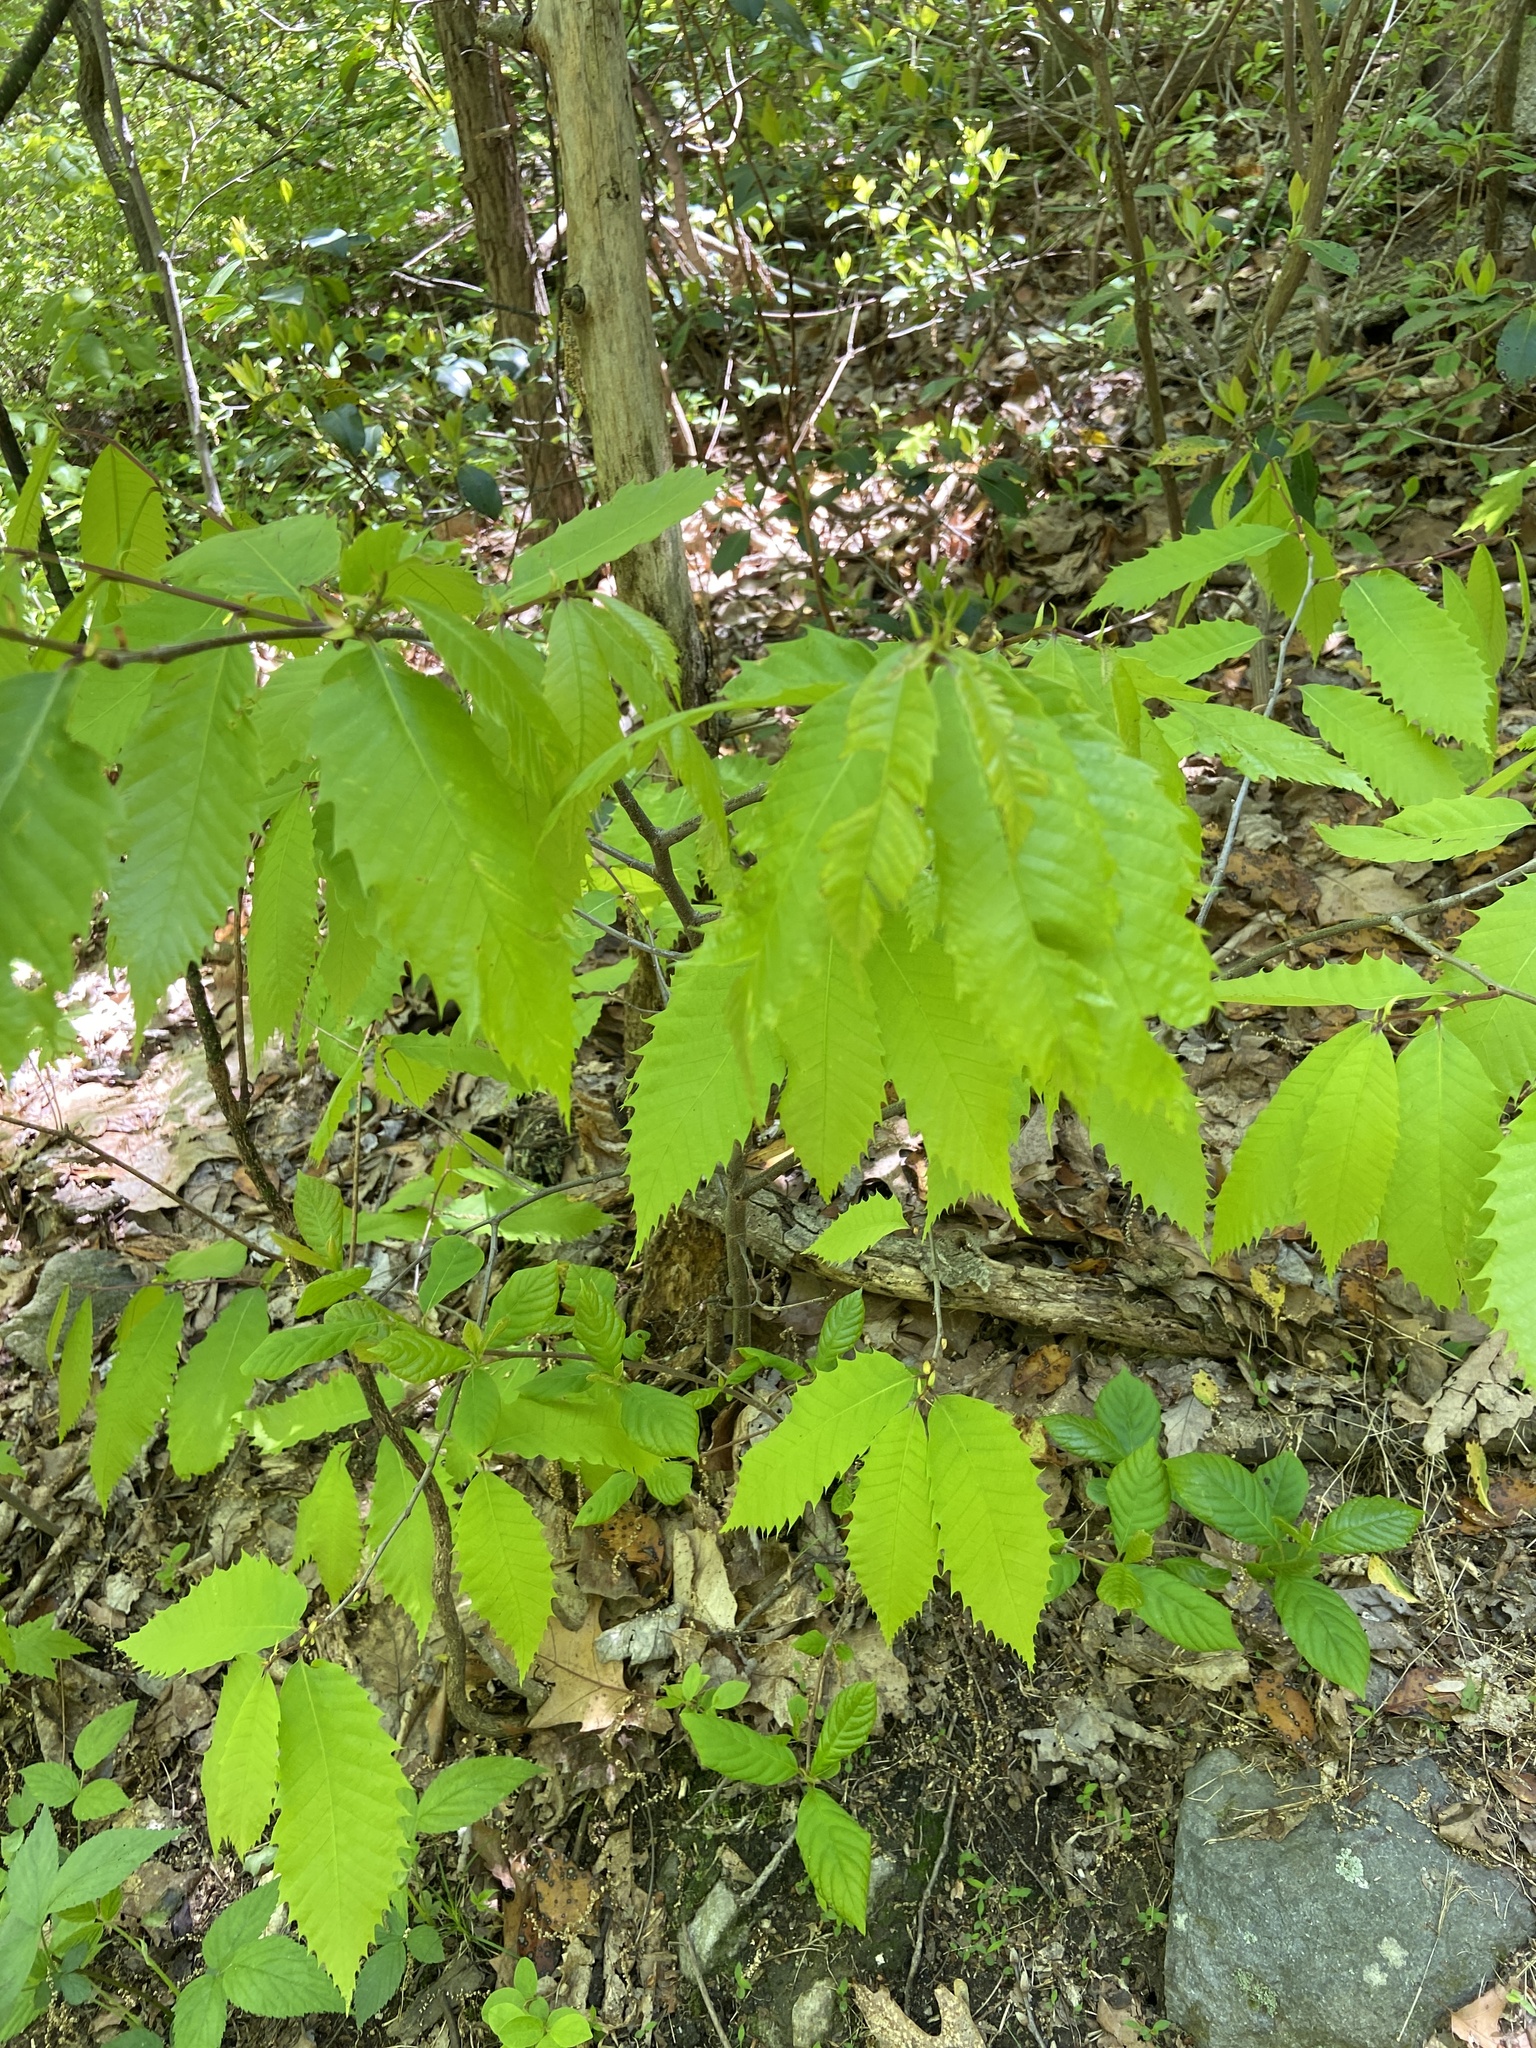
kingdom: Plantae
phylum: Tracheophyta
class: Magnoliopsida
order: Fagales
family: Fagaceae
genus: Castanea
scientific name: Castanea dentata
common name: American chestnut
